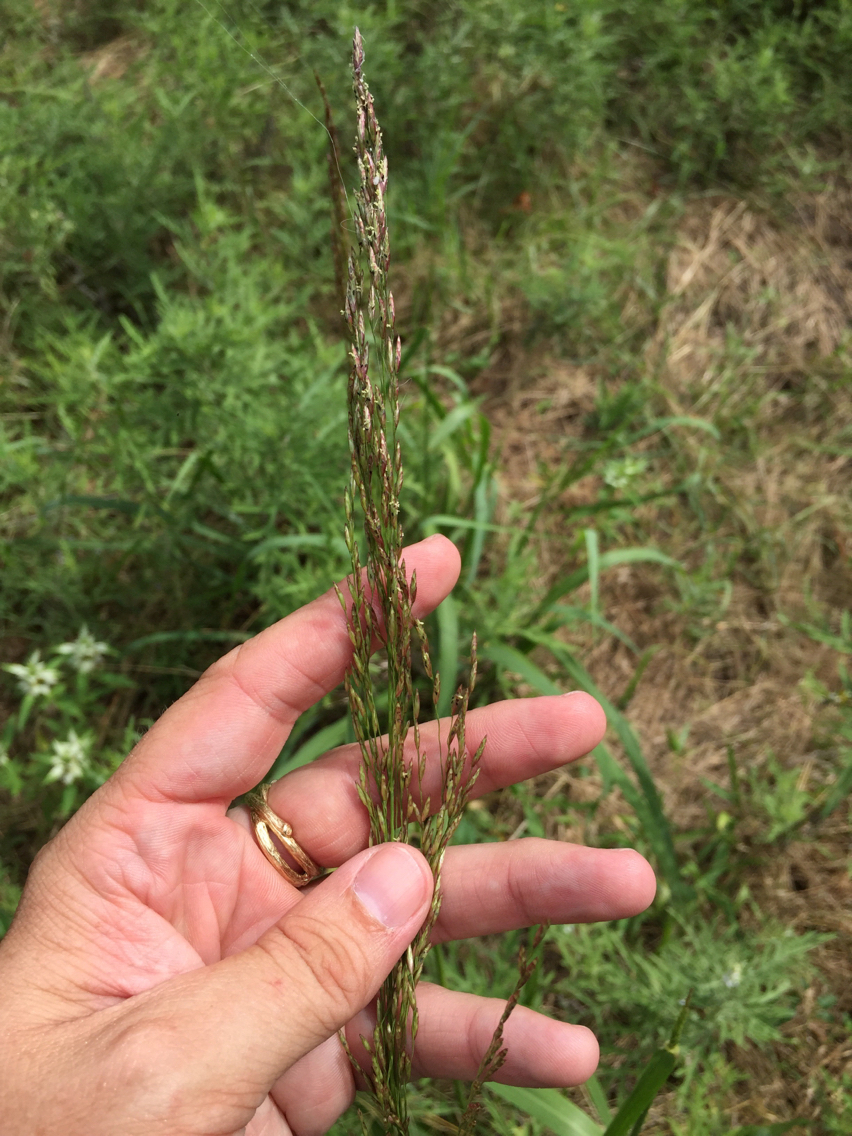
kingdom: Plantae
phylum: Tracheophyta
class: Liliopsida
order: Poales
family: Poaceae
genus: Tridens
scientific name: Tridens flavus
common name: Purpletop
